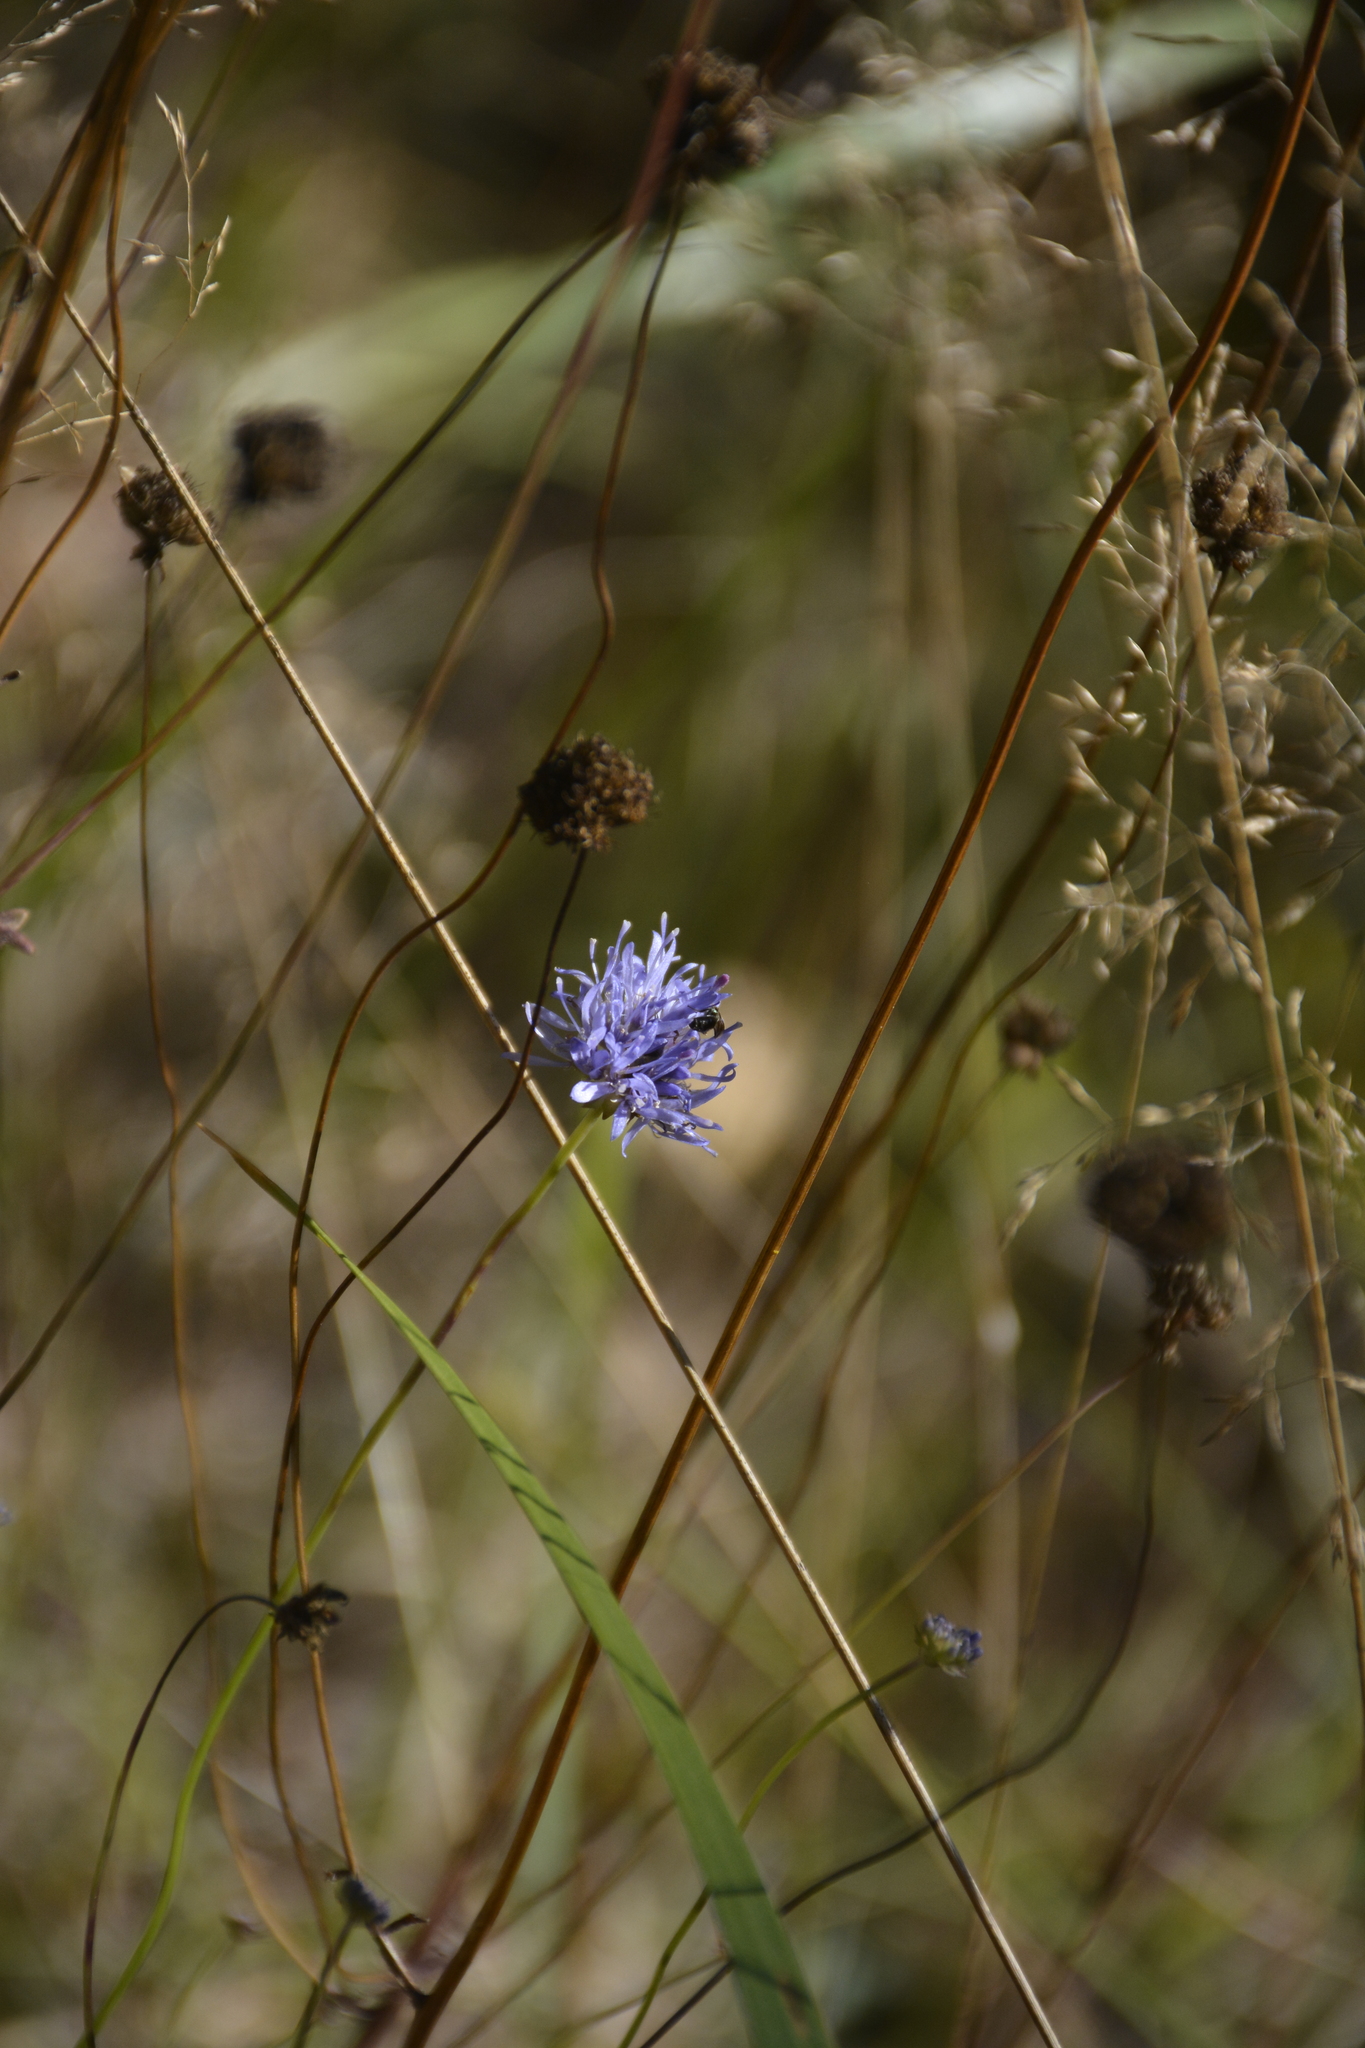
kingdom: Plantae
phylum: Tracheophyta
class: Magnoliopsida
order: Asterales
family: Campanulaceae
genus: Jasione
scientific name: Jasione montana
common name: Sheep's-bit
